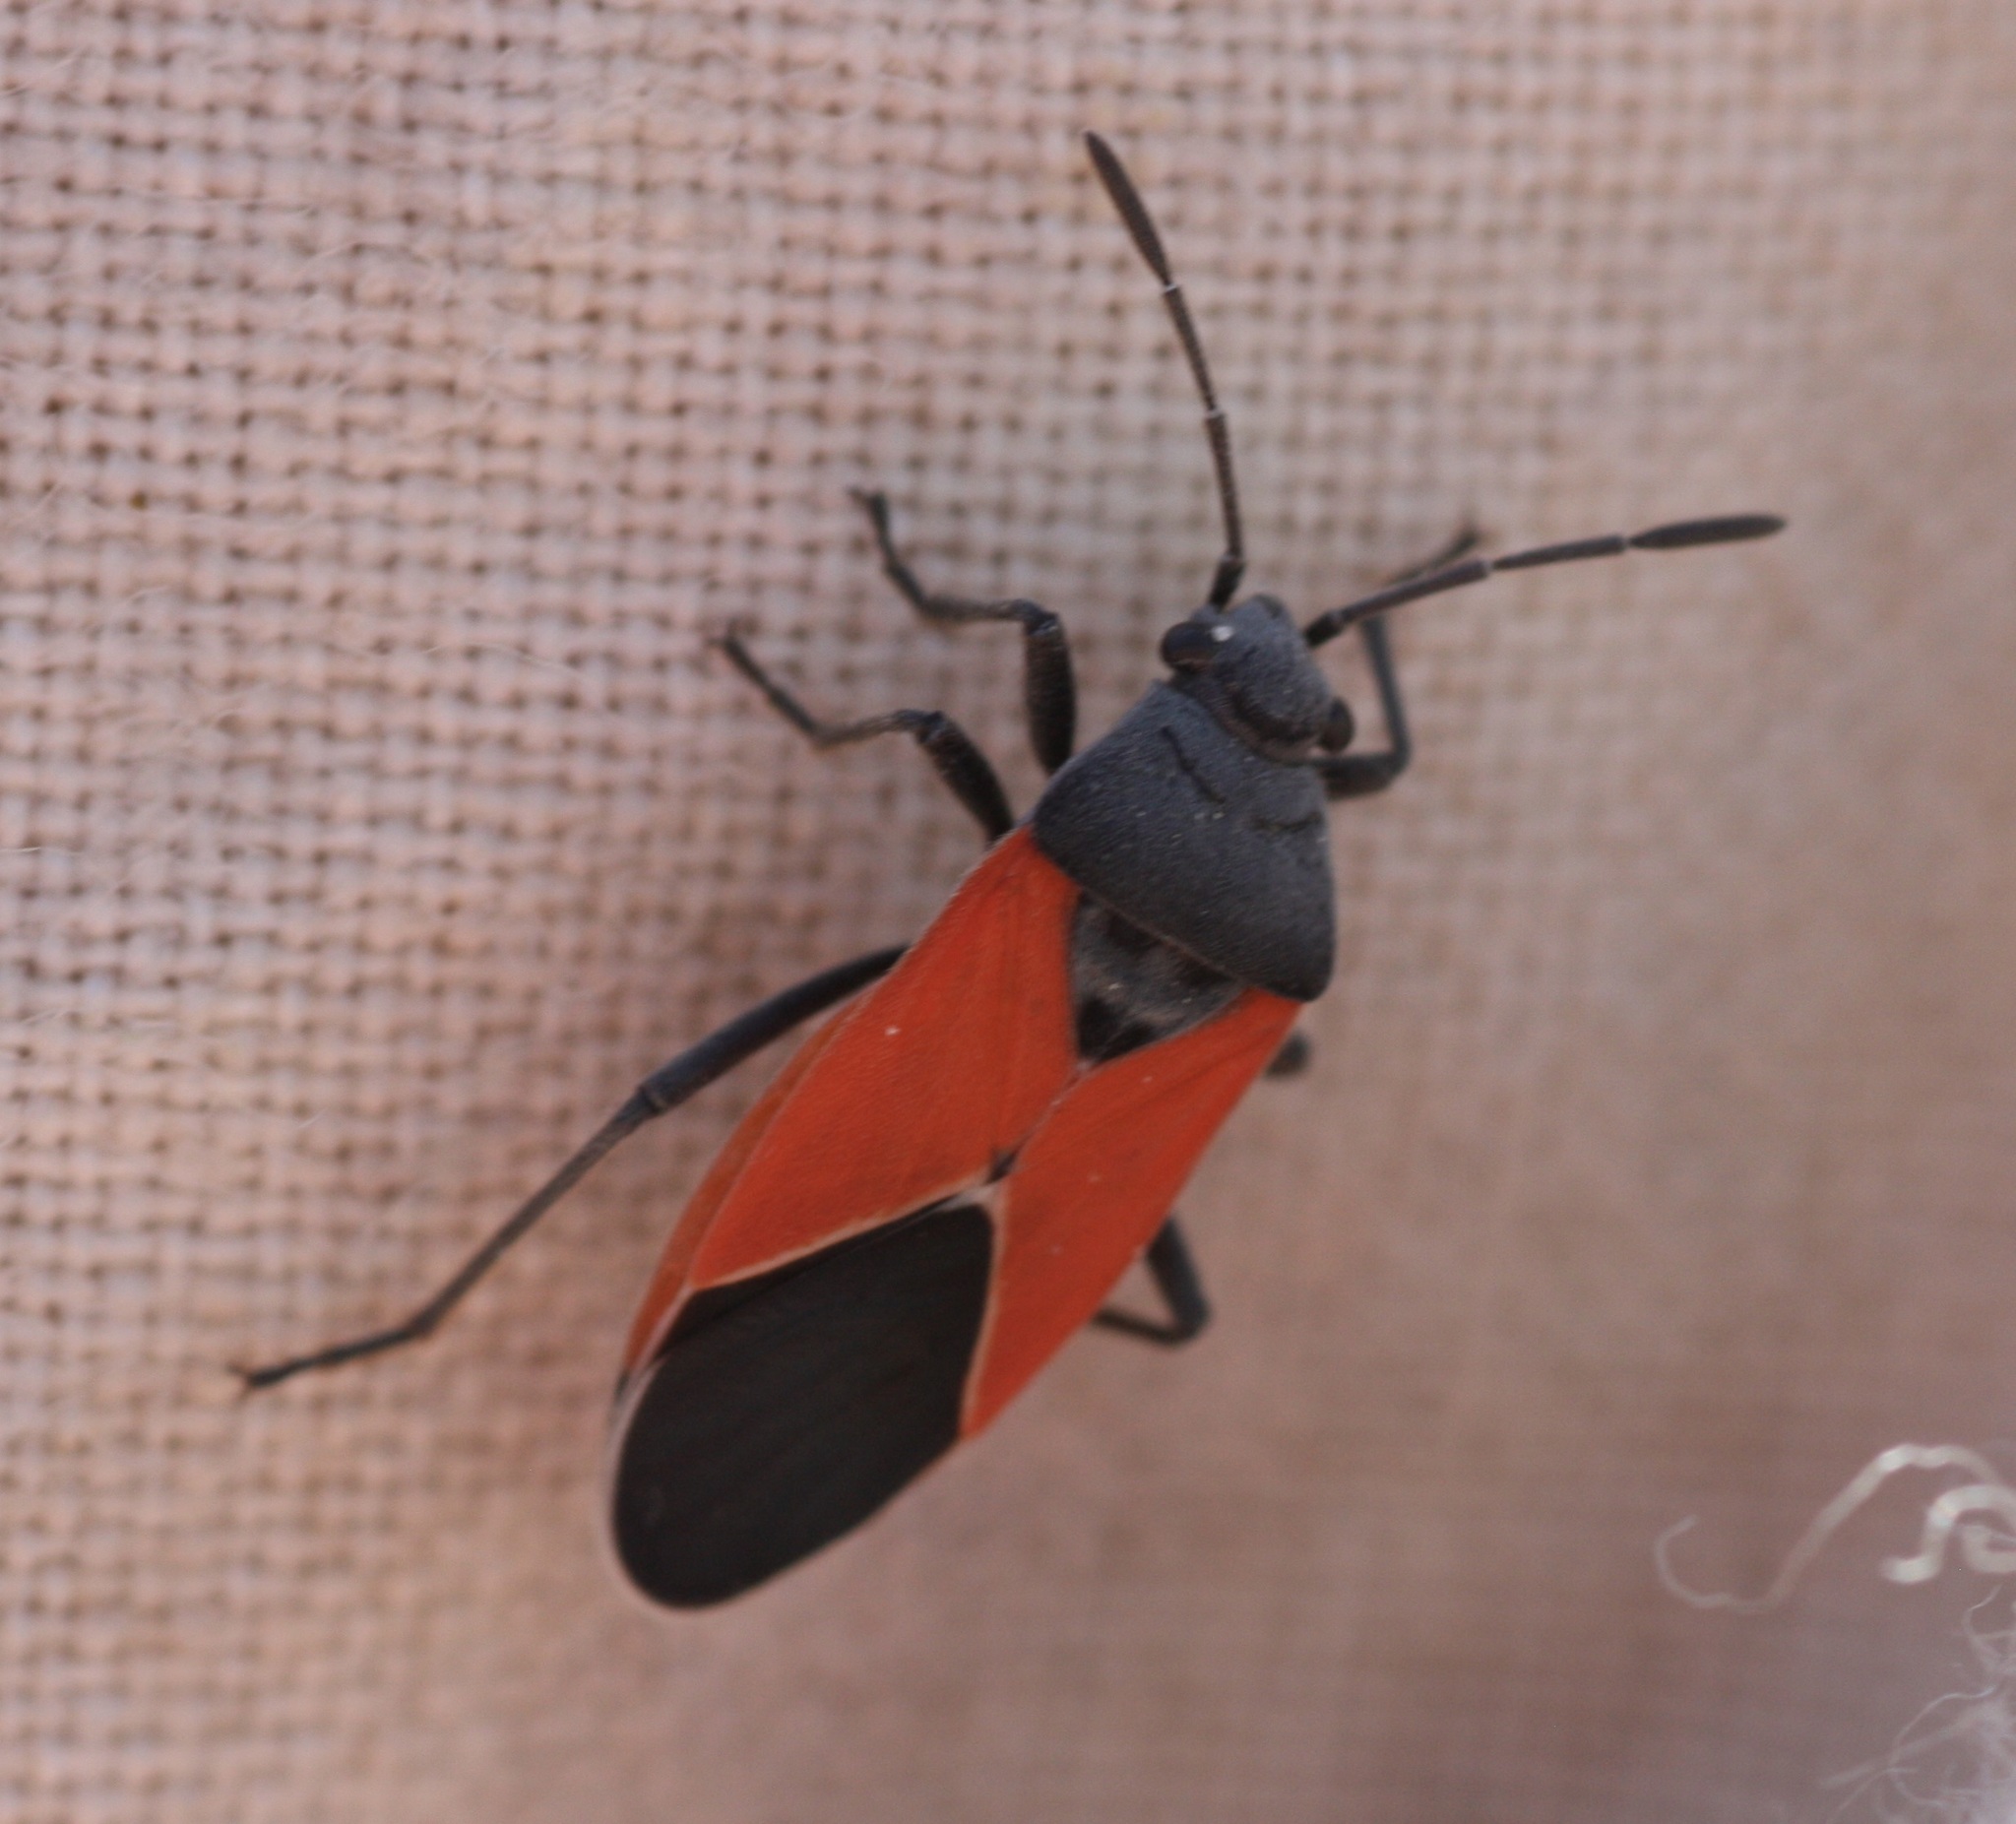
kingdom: Animalia
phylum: Arthropoda
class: Insecta
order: Hemiptera
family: Lygaeidae
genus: Melanopleurus
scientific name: Melanopleurus belfragei
